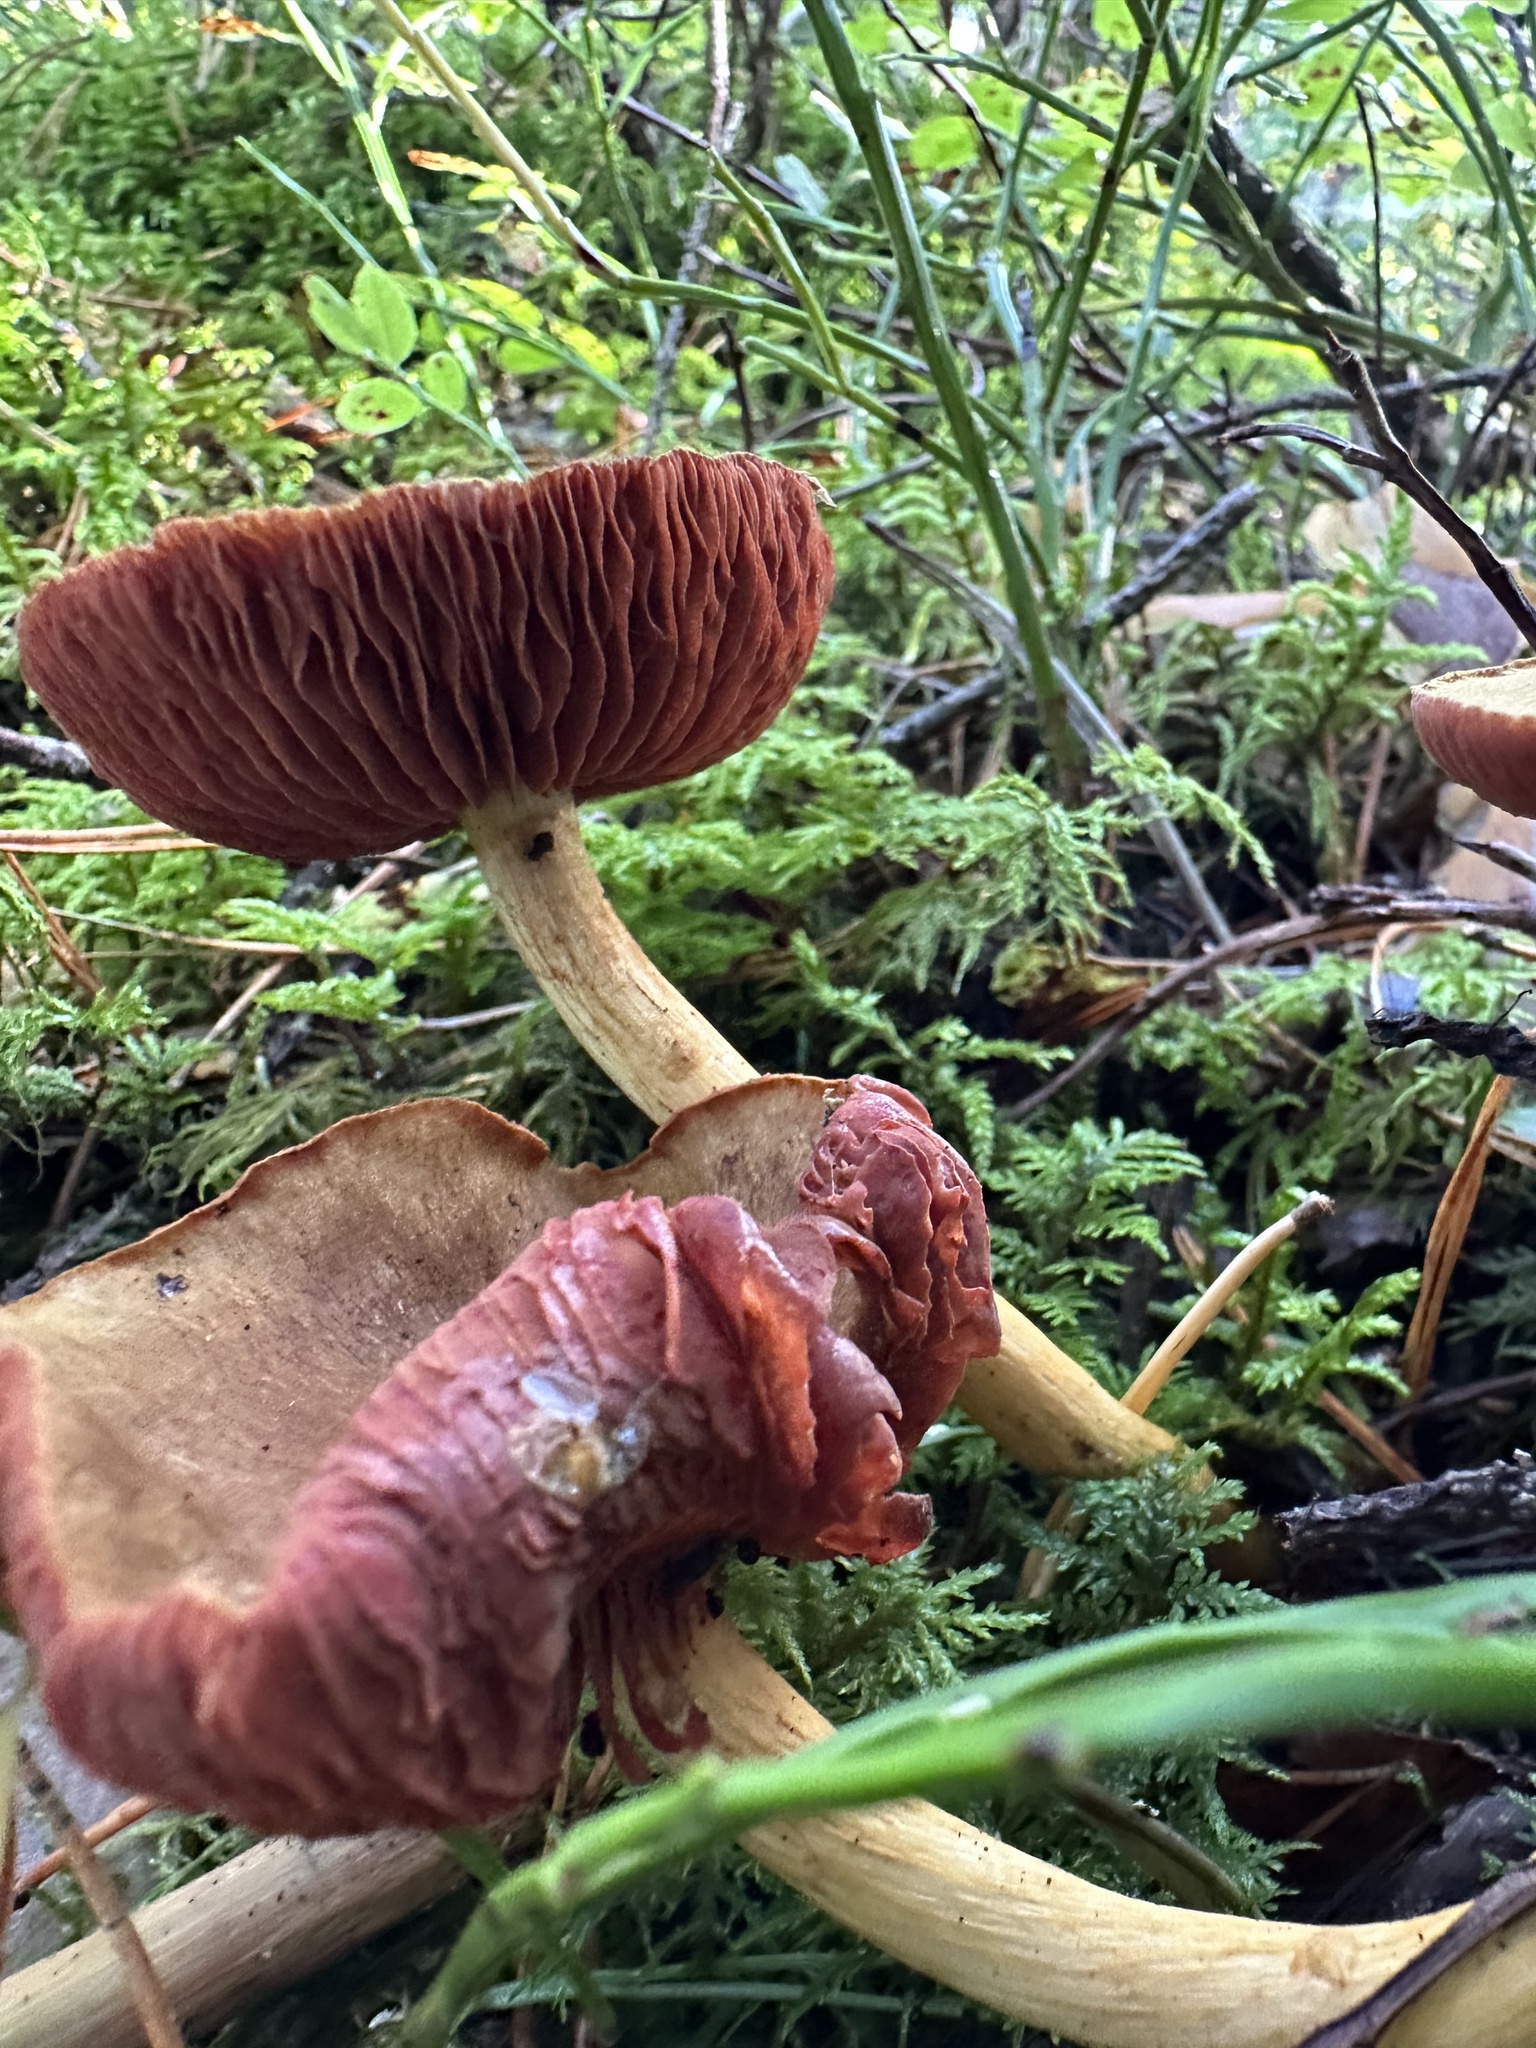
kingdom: Fungi
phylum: Basidiomycota
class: Agaricomycetes
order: Agaricales
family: Cortinariaceae
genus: Cortinarius
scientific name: Cortinarius semisanguineus
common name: Surprise webcap
